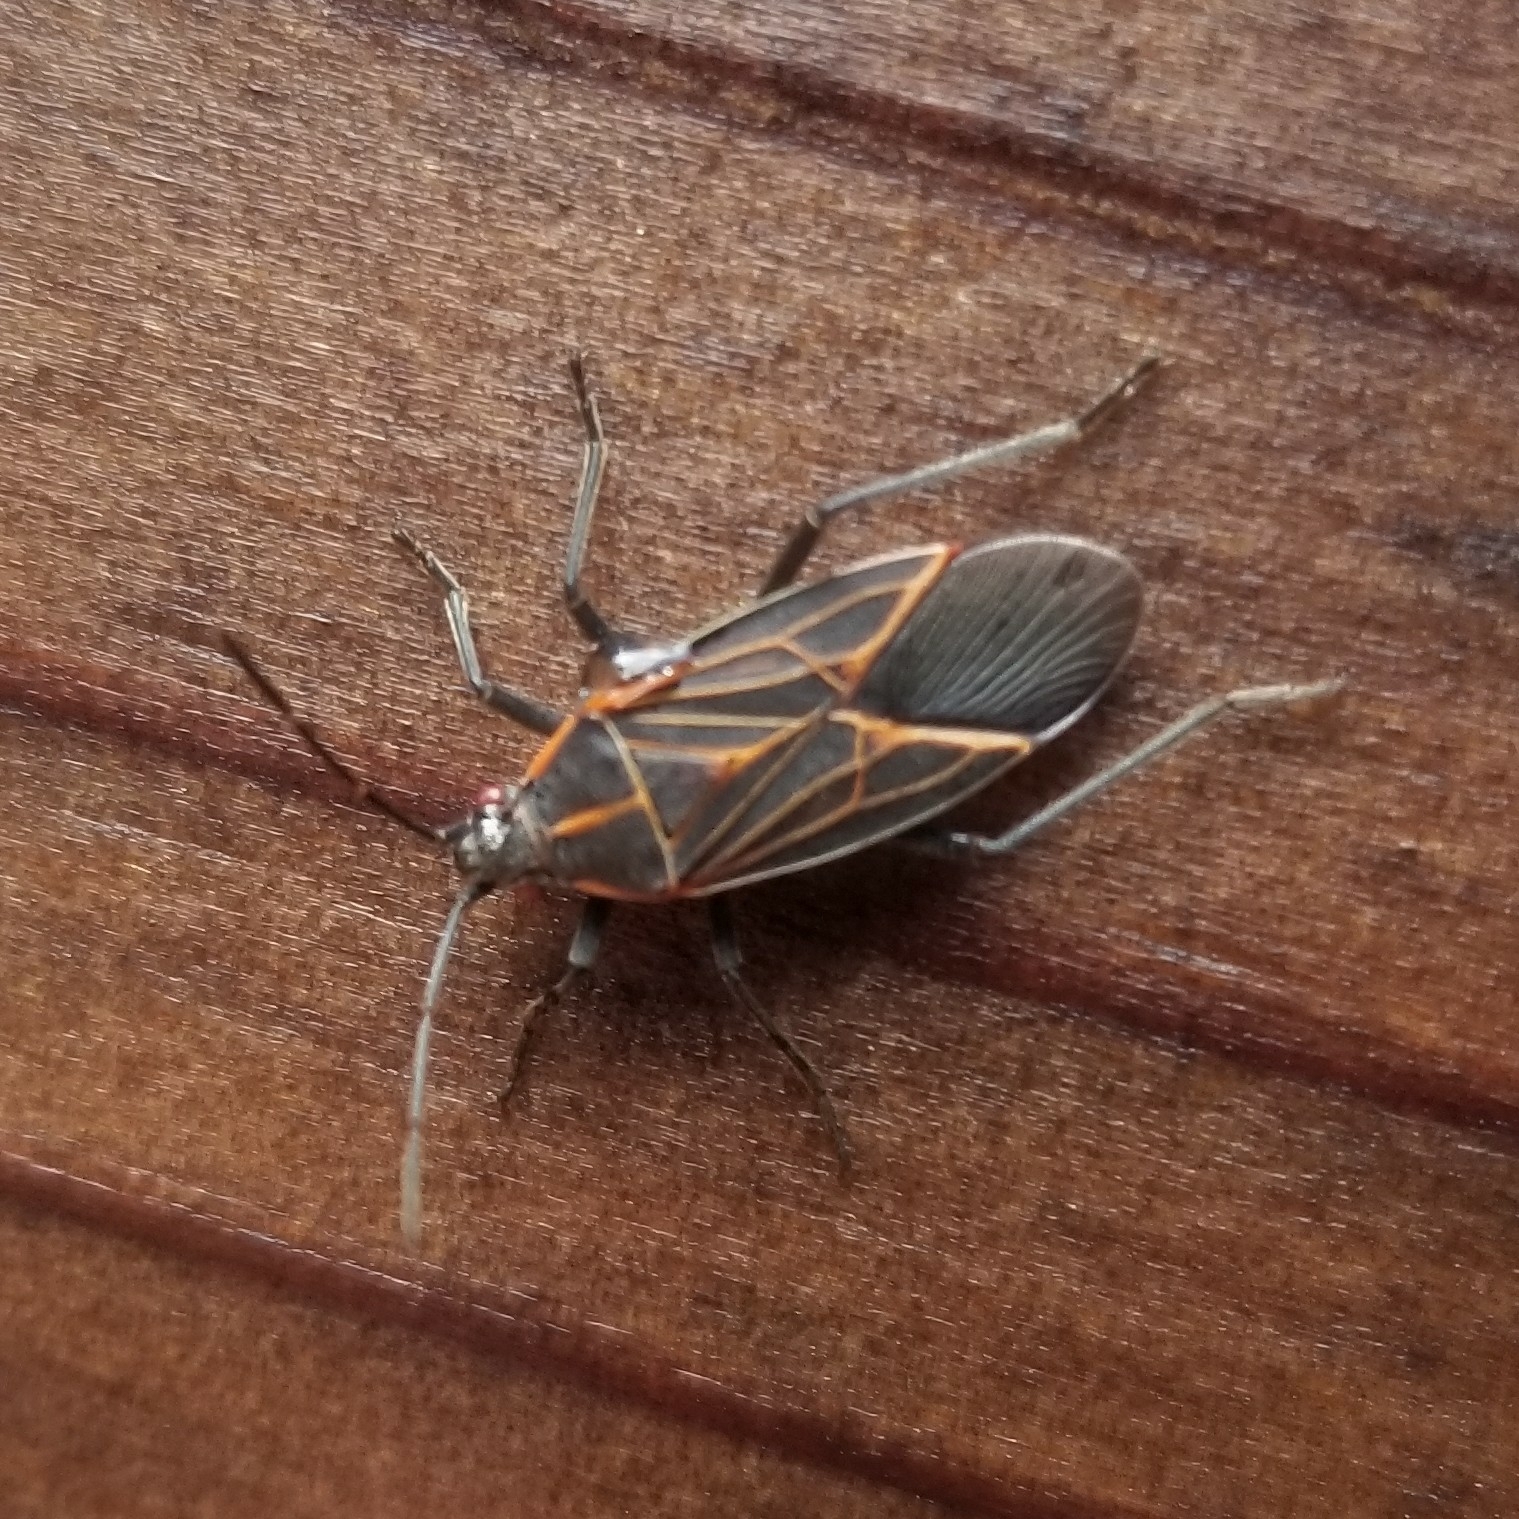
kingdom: Animalia
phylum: Arthropoda
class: Insecta
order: Hemiptera
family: Rhopalidae
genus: Boisea
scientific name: Boisea rubrolineata
